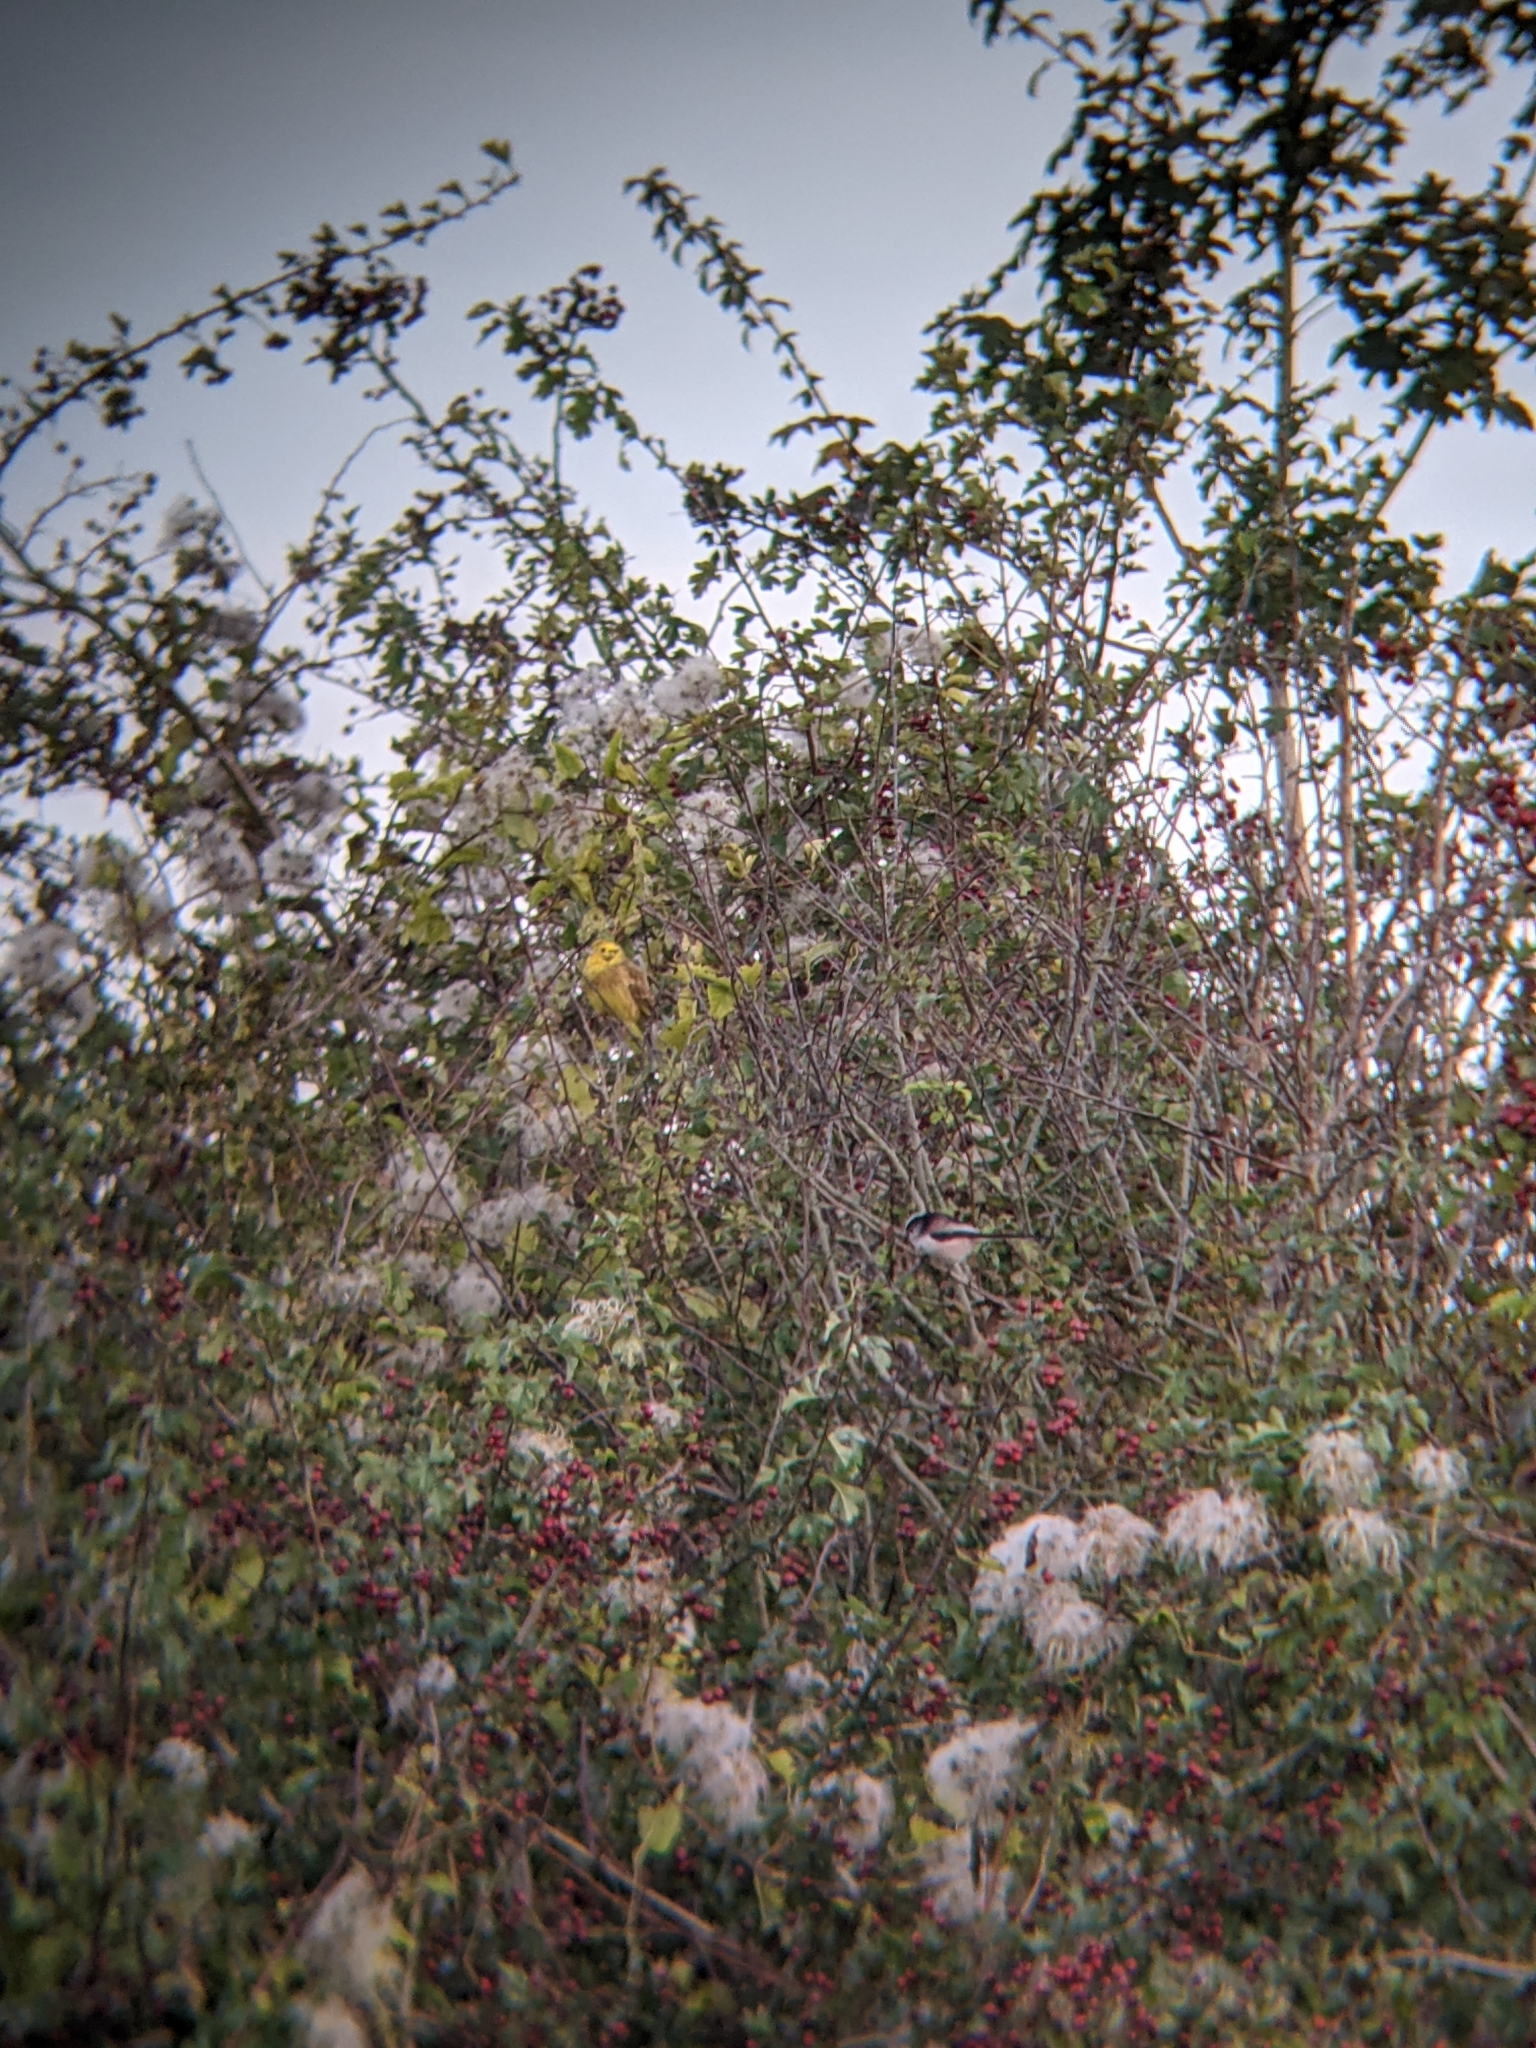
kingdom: Animalia
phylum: Chordata
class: Aves
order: Passeriformes
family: Aegithalidae
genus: Aegithalos
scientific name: Aegithalos caudatus
